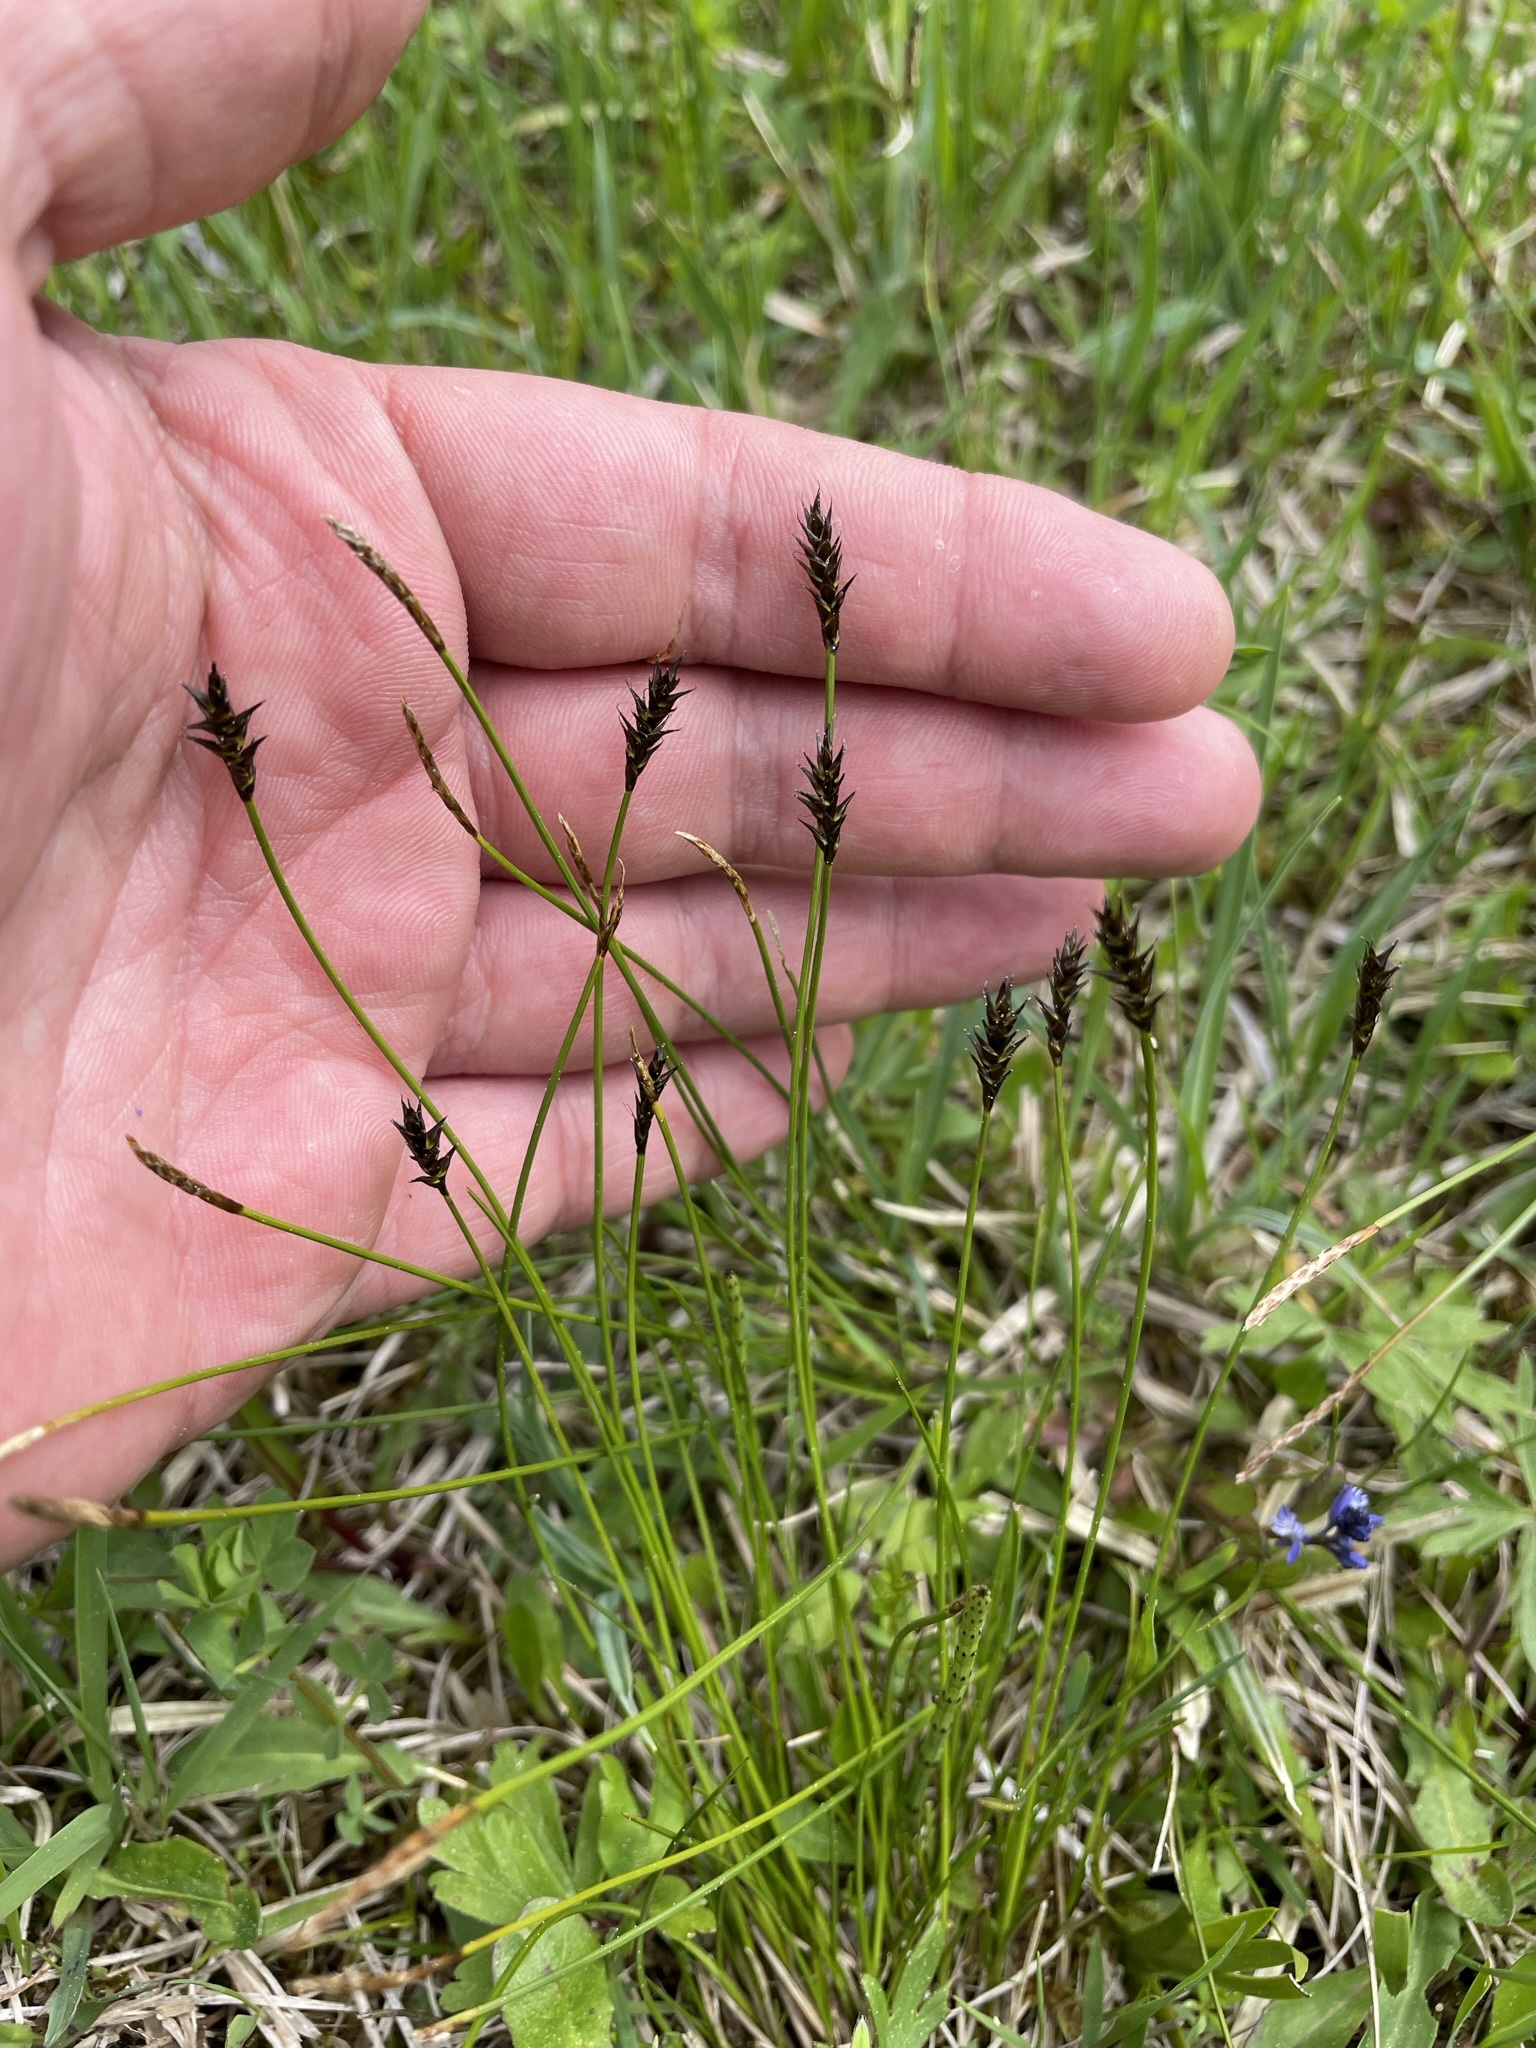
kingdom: Plantae
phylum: Tracheophyta
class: Liliopsida
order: Poales
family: Cyperaceae
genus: Carex
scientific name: Carex davalliana
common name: Davall's sedge
